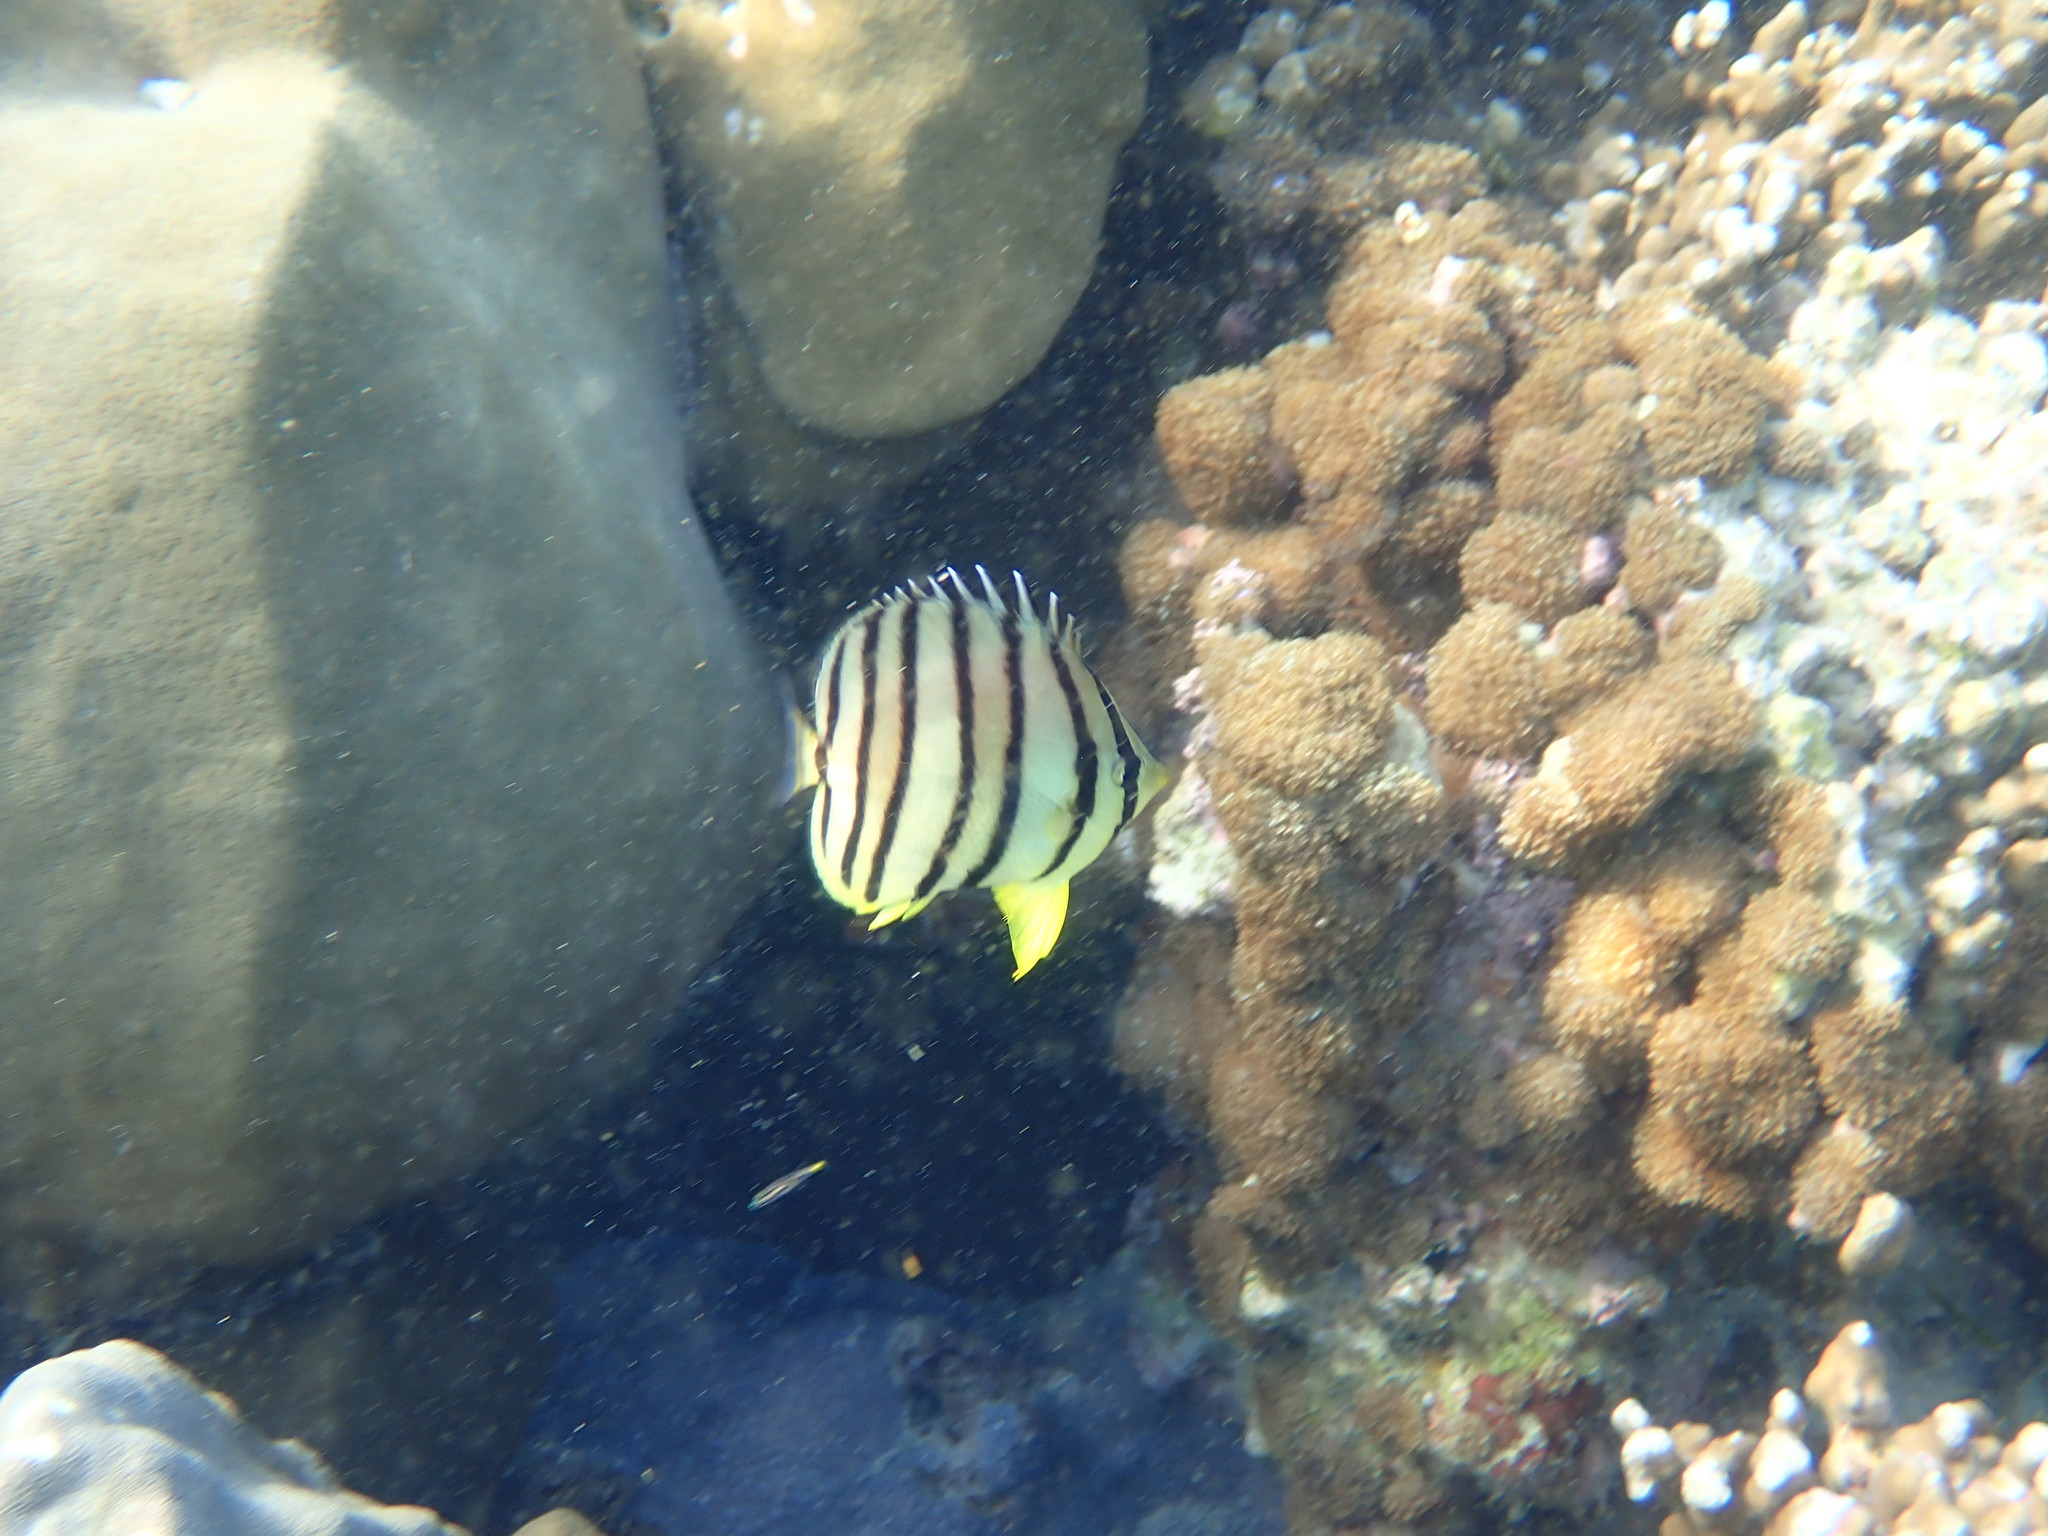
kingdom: Animalia
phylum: Chordata
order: Perciformes
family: Chaetodontidae
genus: Chaetodon
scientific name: Chaetodon octofasciatus
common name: Eightband butterflyfish
